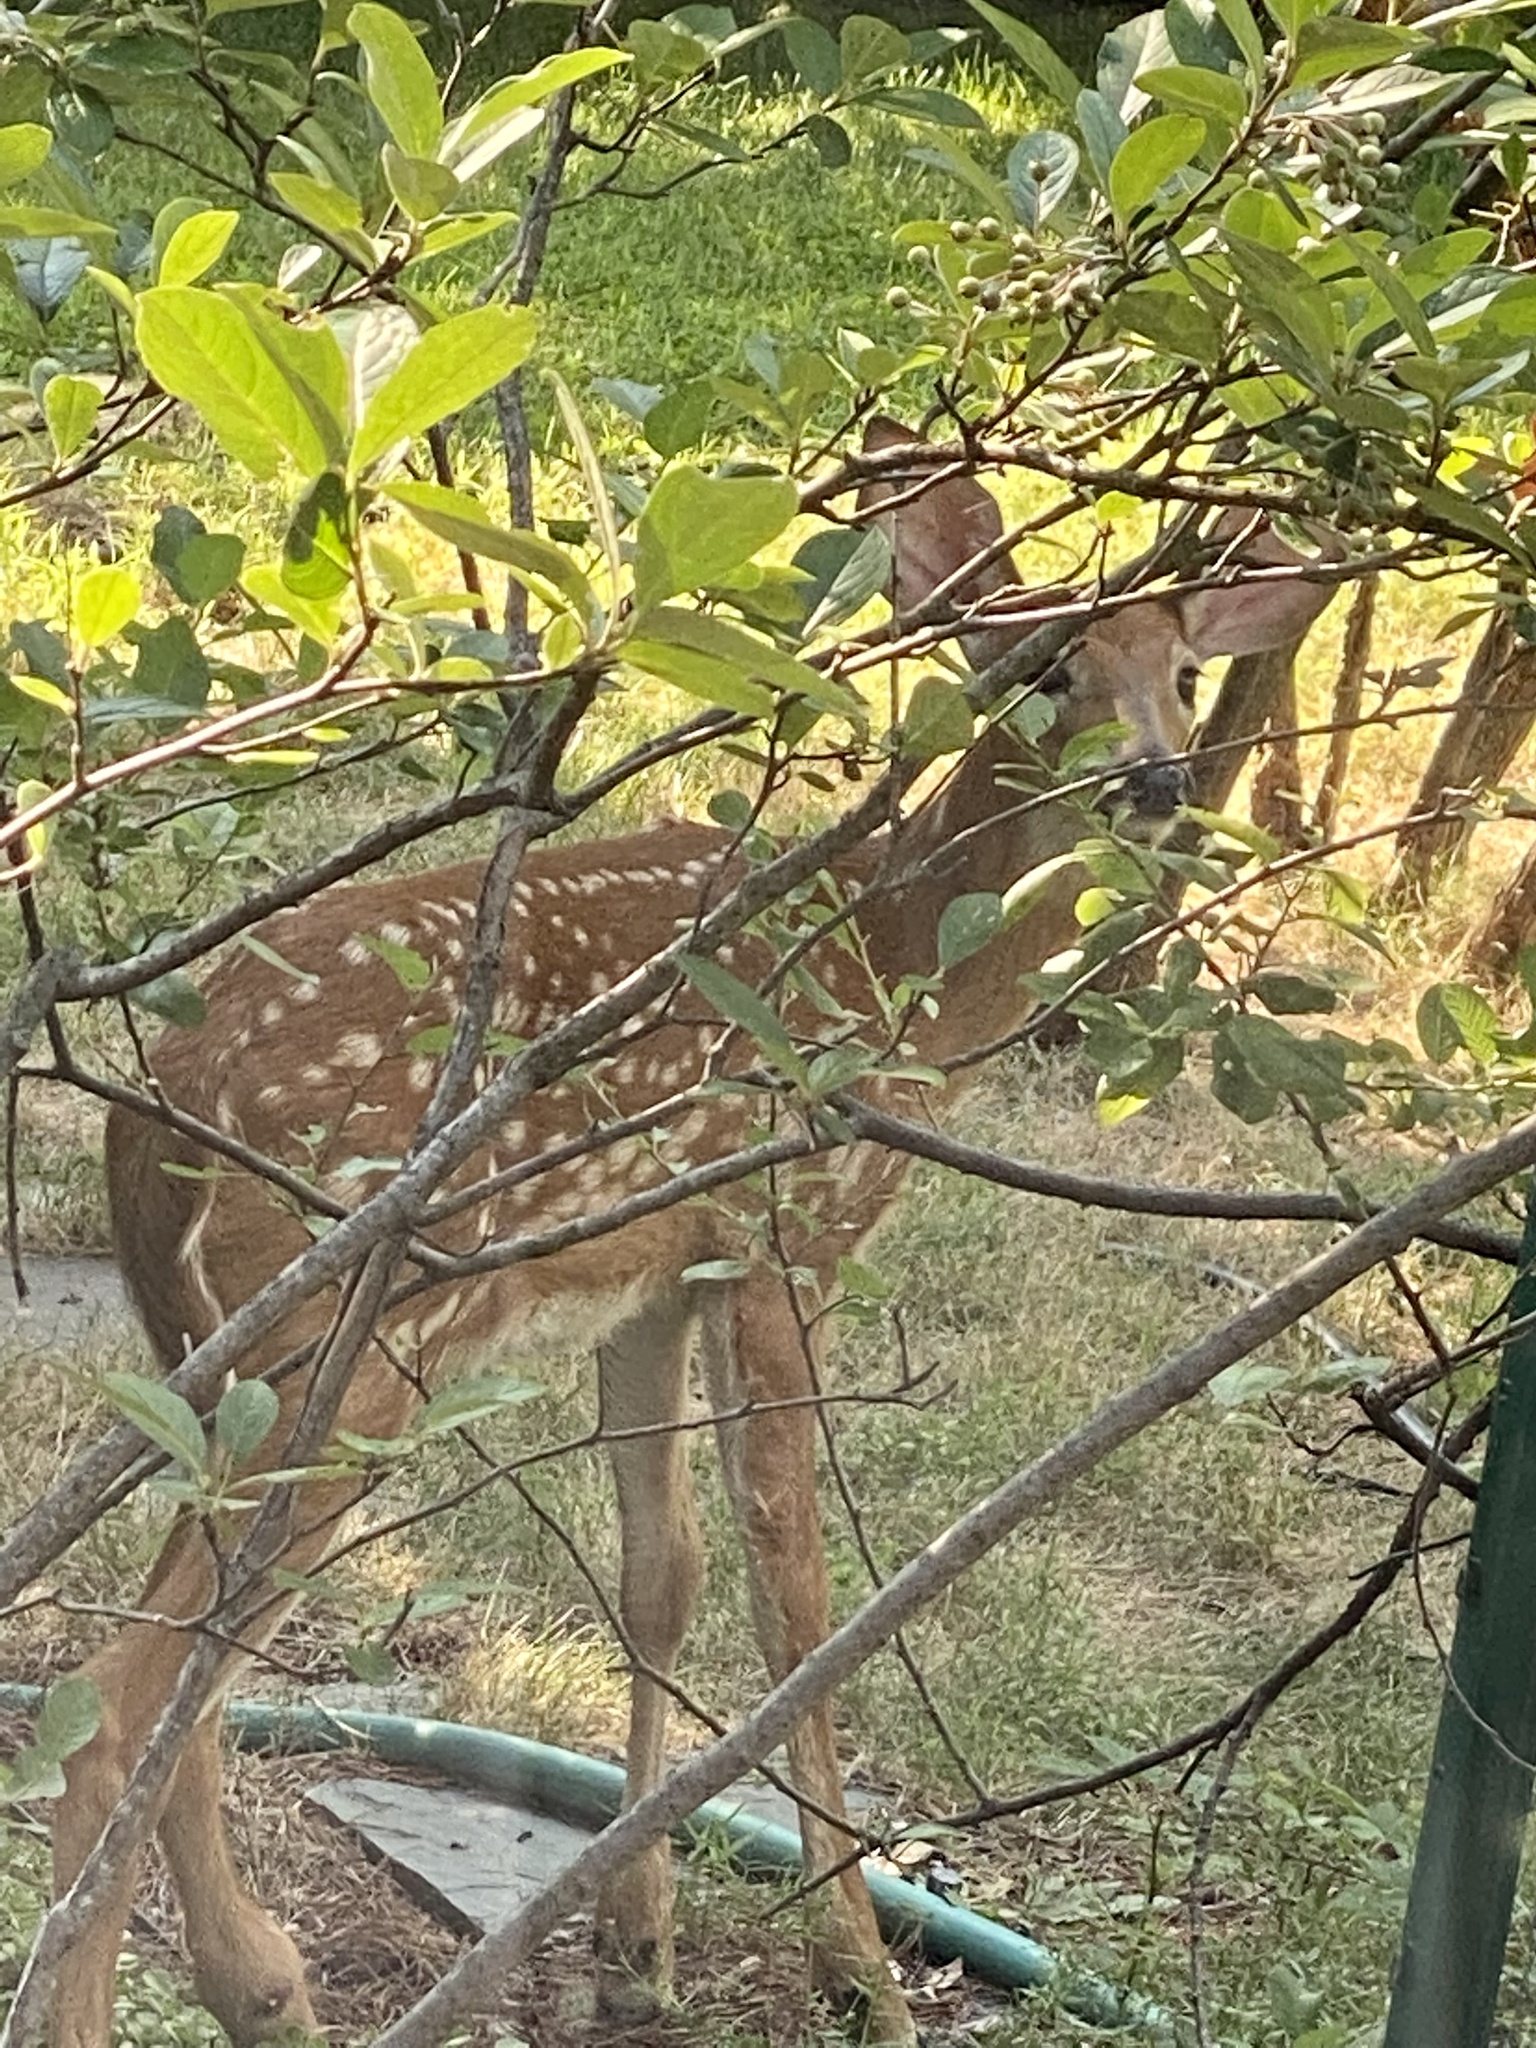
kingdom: Animalia
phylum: Chordata
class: Mammalia
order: Artiodactyla
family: Cervidae
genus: Odocoileus
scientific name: Odocoileus virginianus
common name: White-tailed deer
